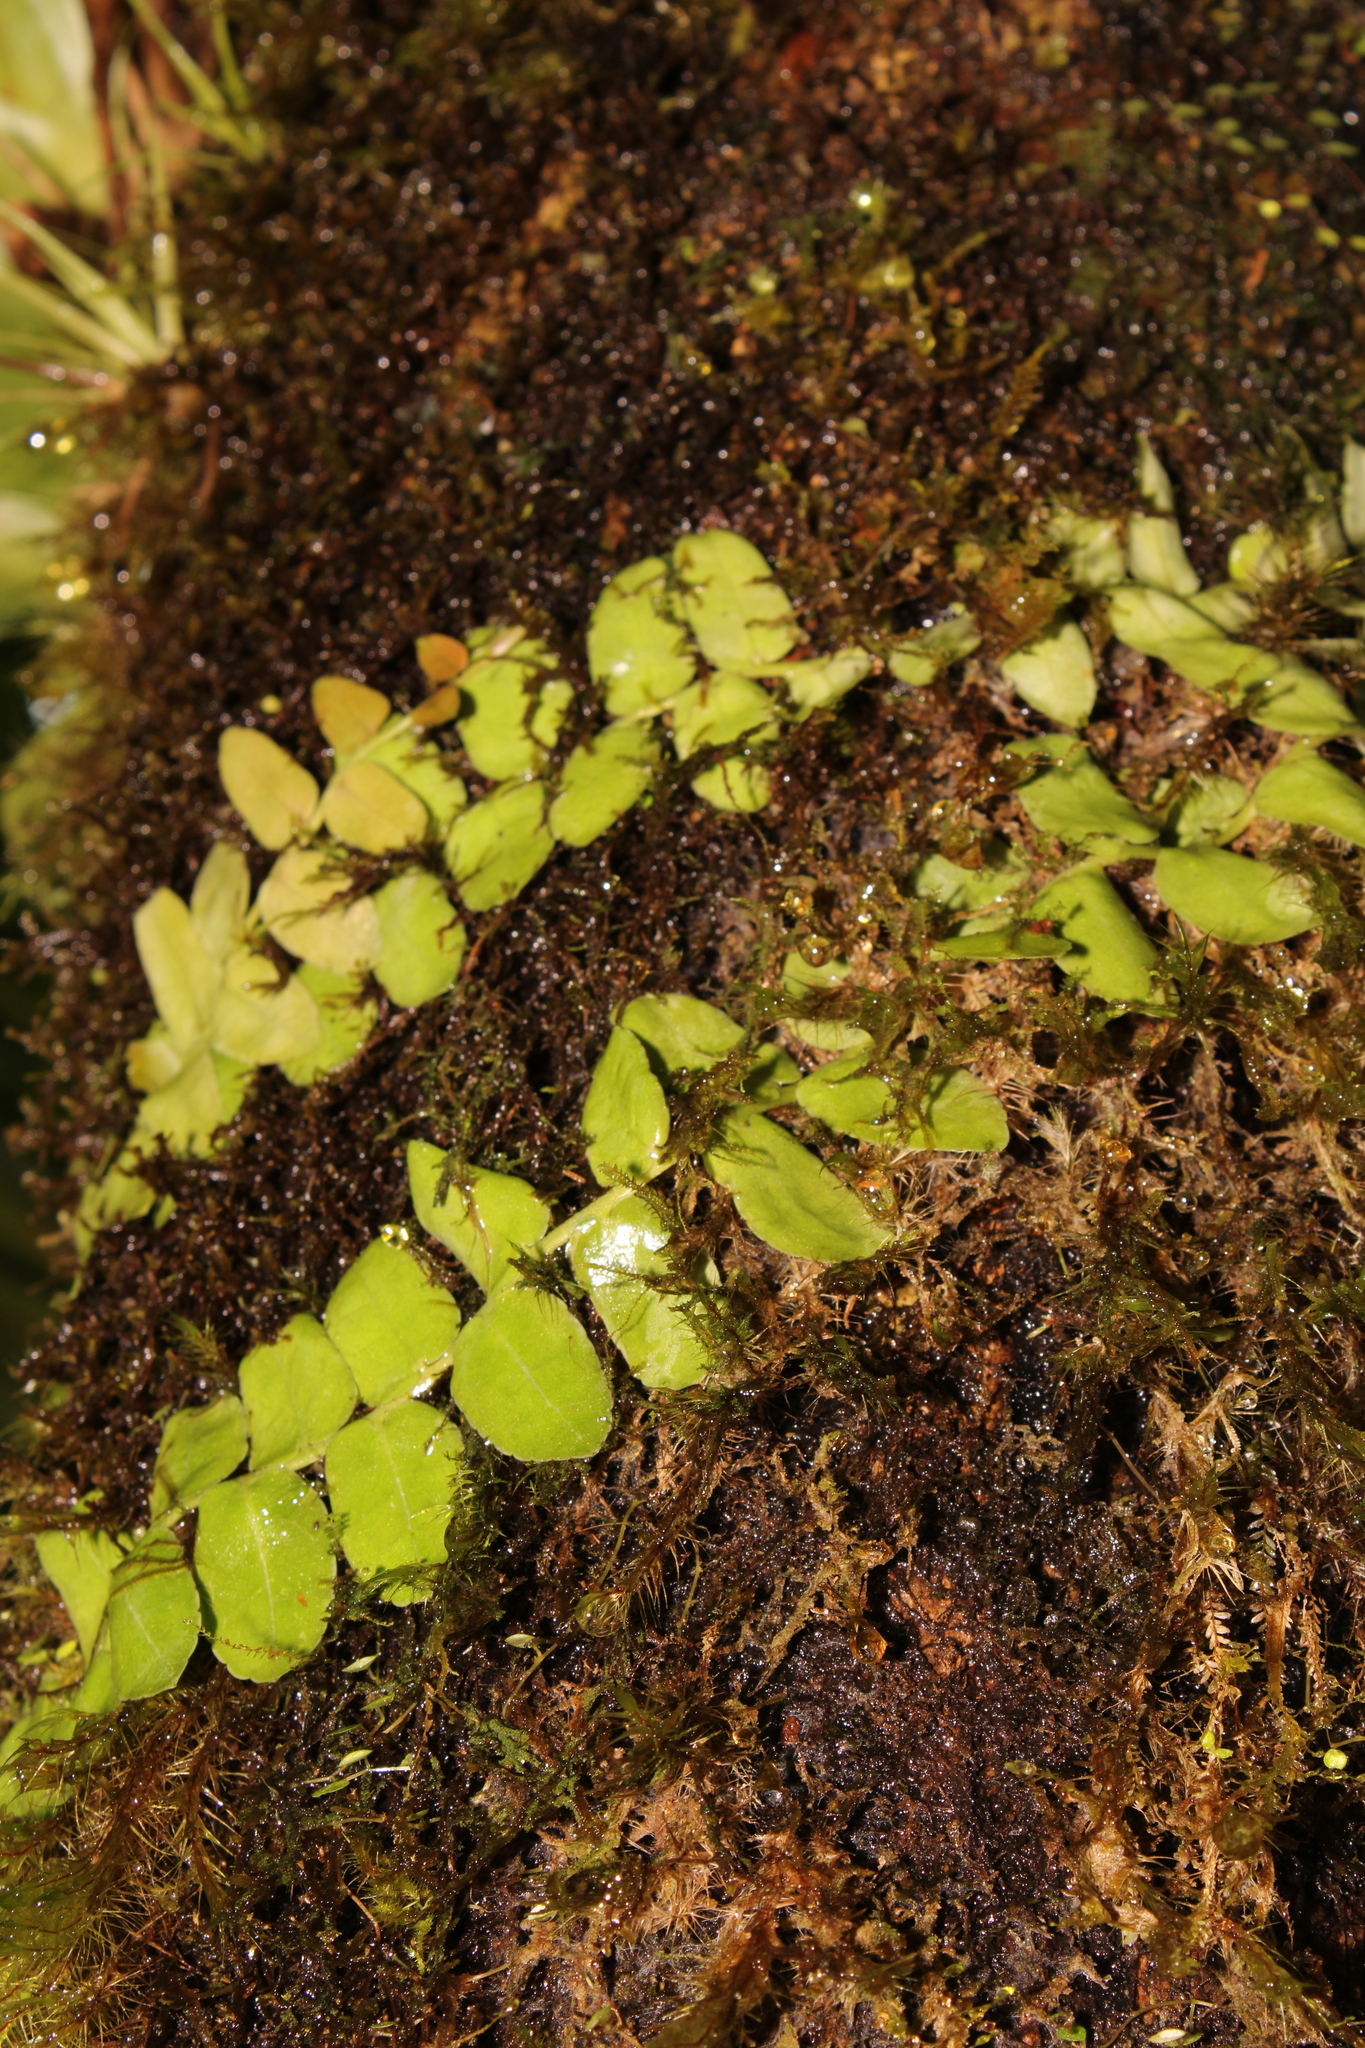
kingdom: Plantae
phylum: Tracheophyta
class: Magnoliopsida
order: Ericales
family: Marcgraviaceae
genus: Marcgravia
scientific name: Marcgravia rectiflora
